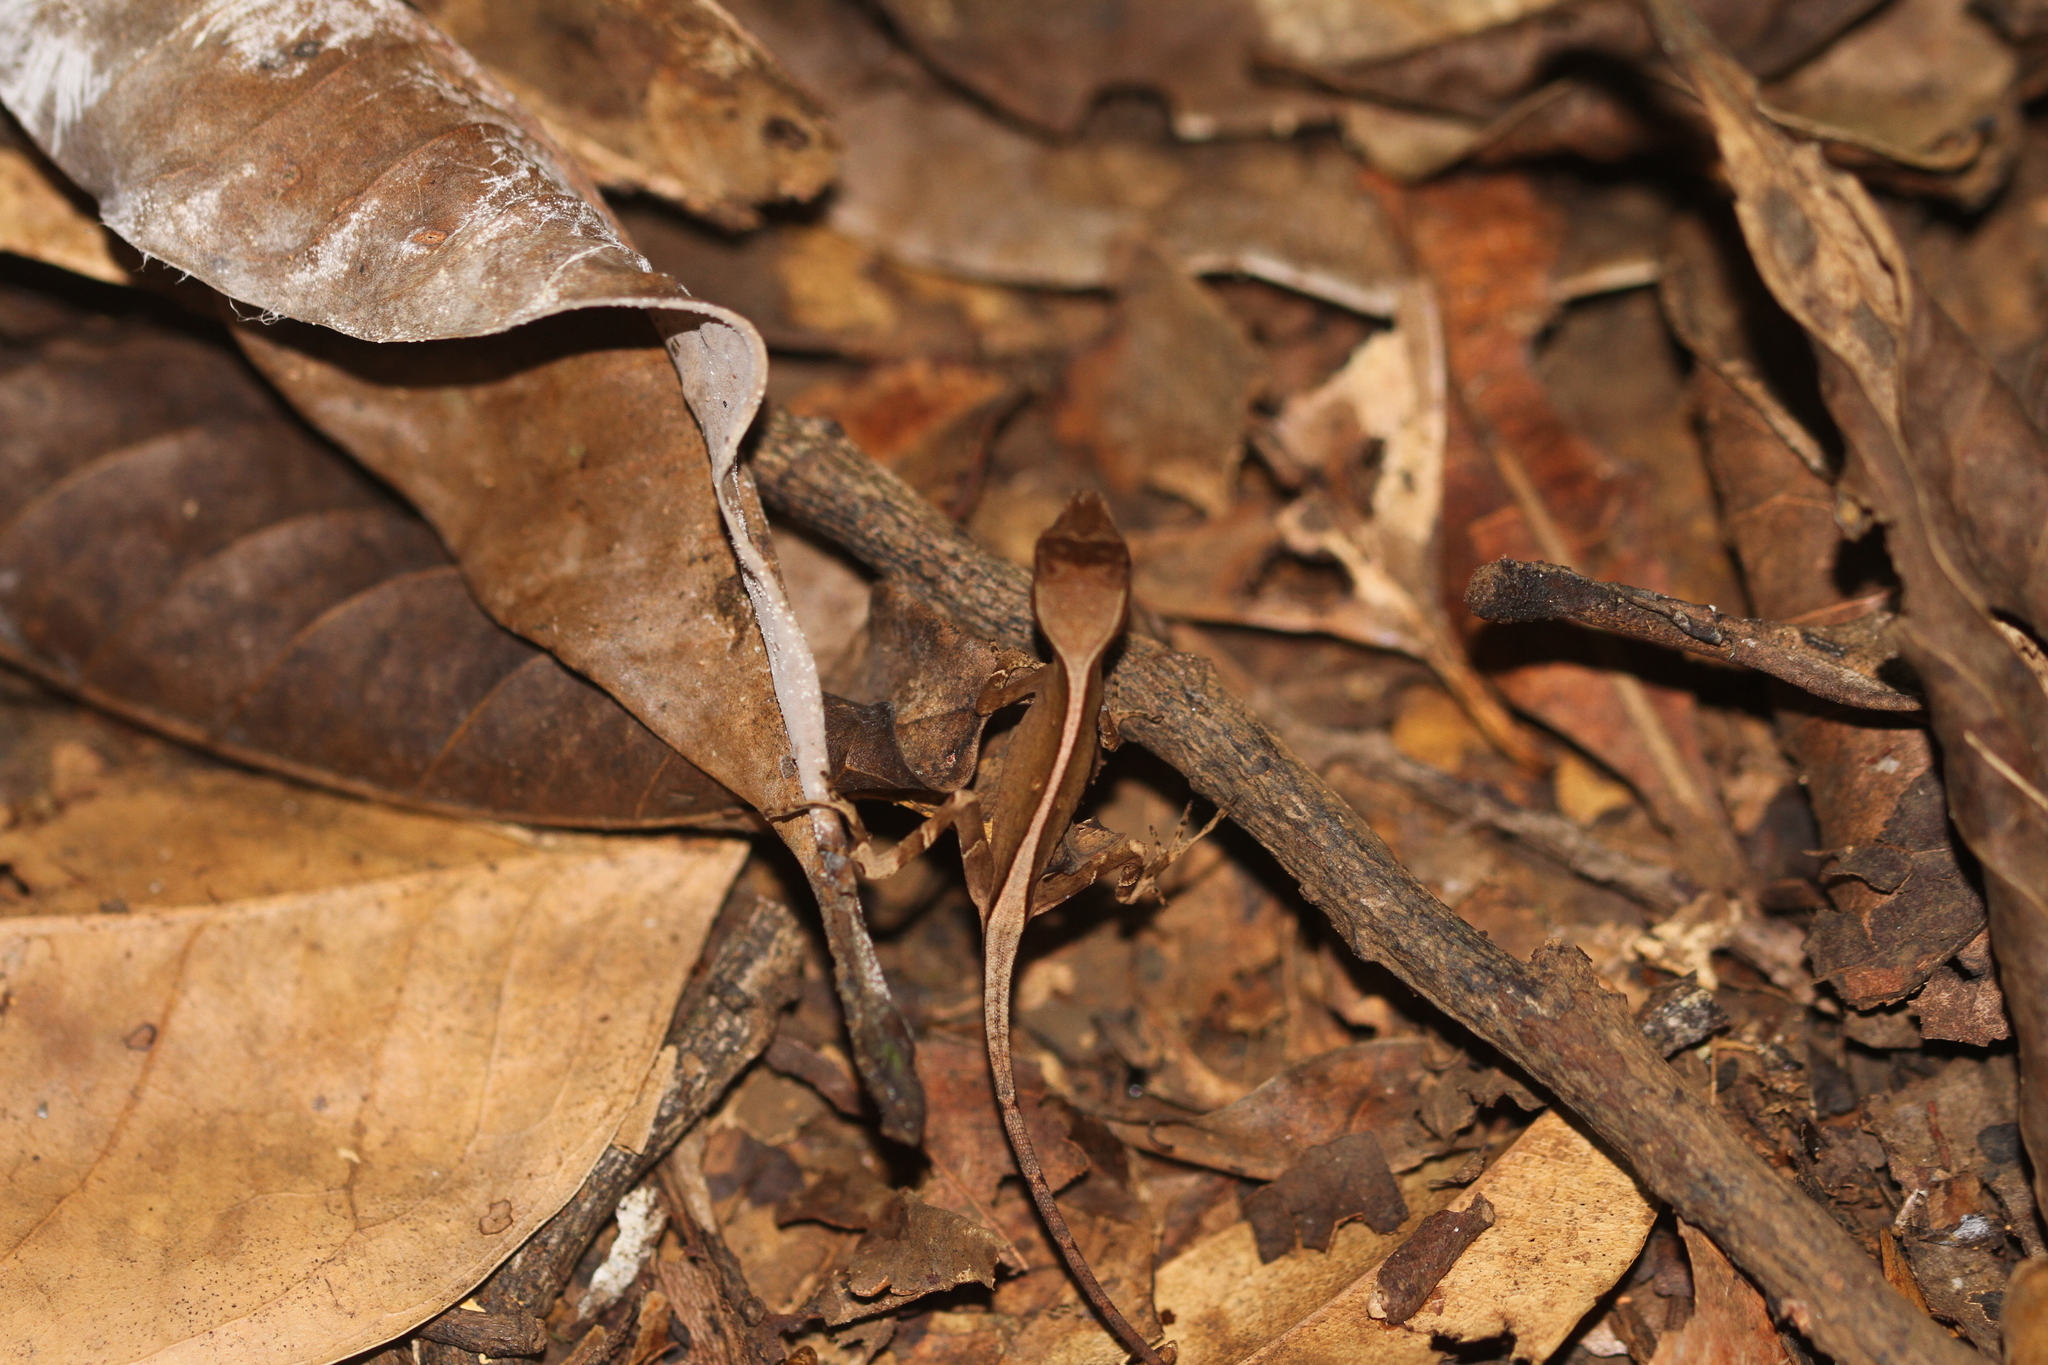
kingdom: Animalia
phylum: Chordata
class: Squamata
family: Dactyloidae
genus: Anolis
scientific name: Anolis chrysolepis
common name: Goldenscale anole
